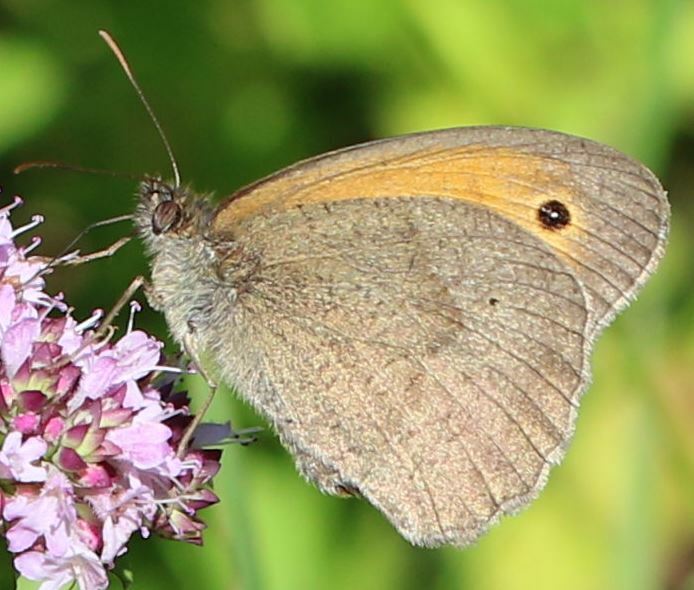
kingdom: Animalia
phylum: Arthropoda
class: Insecta
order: Lepidoptera
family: Nymphalidae
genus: Maniola
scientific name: Maniola jurtina
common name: Meadow brown
